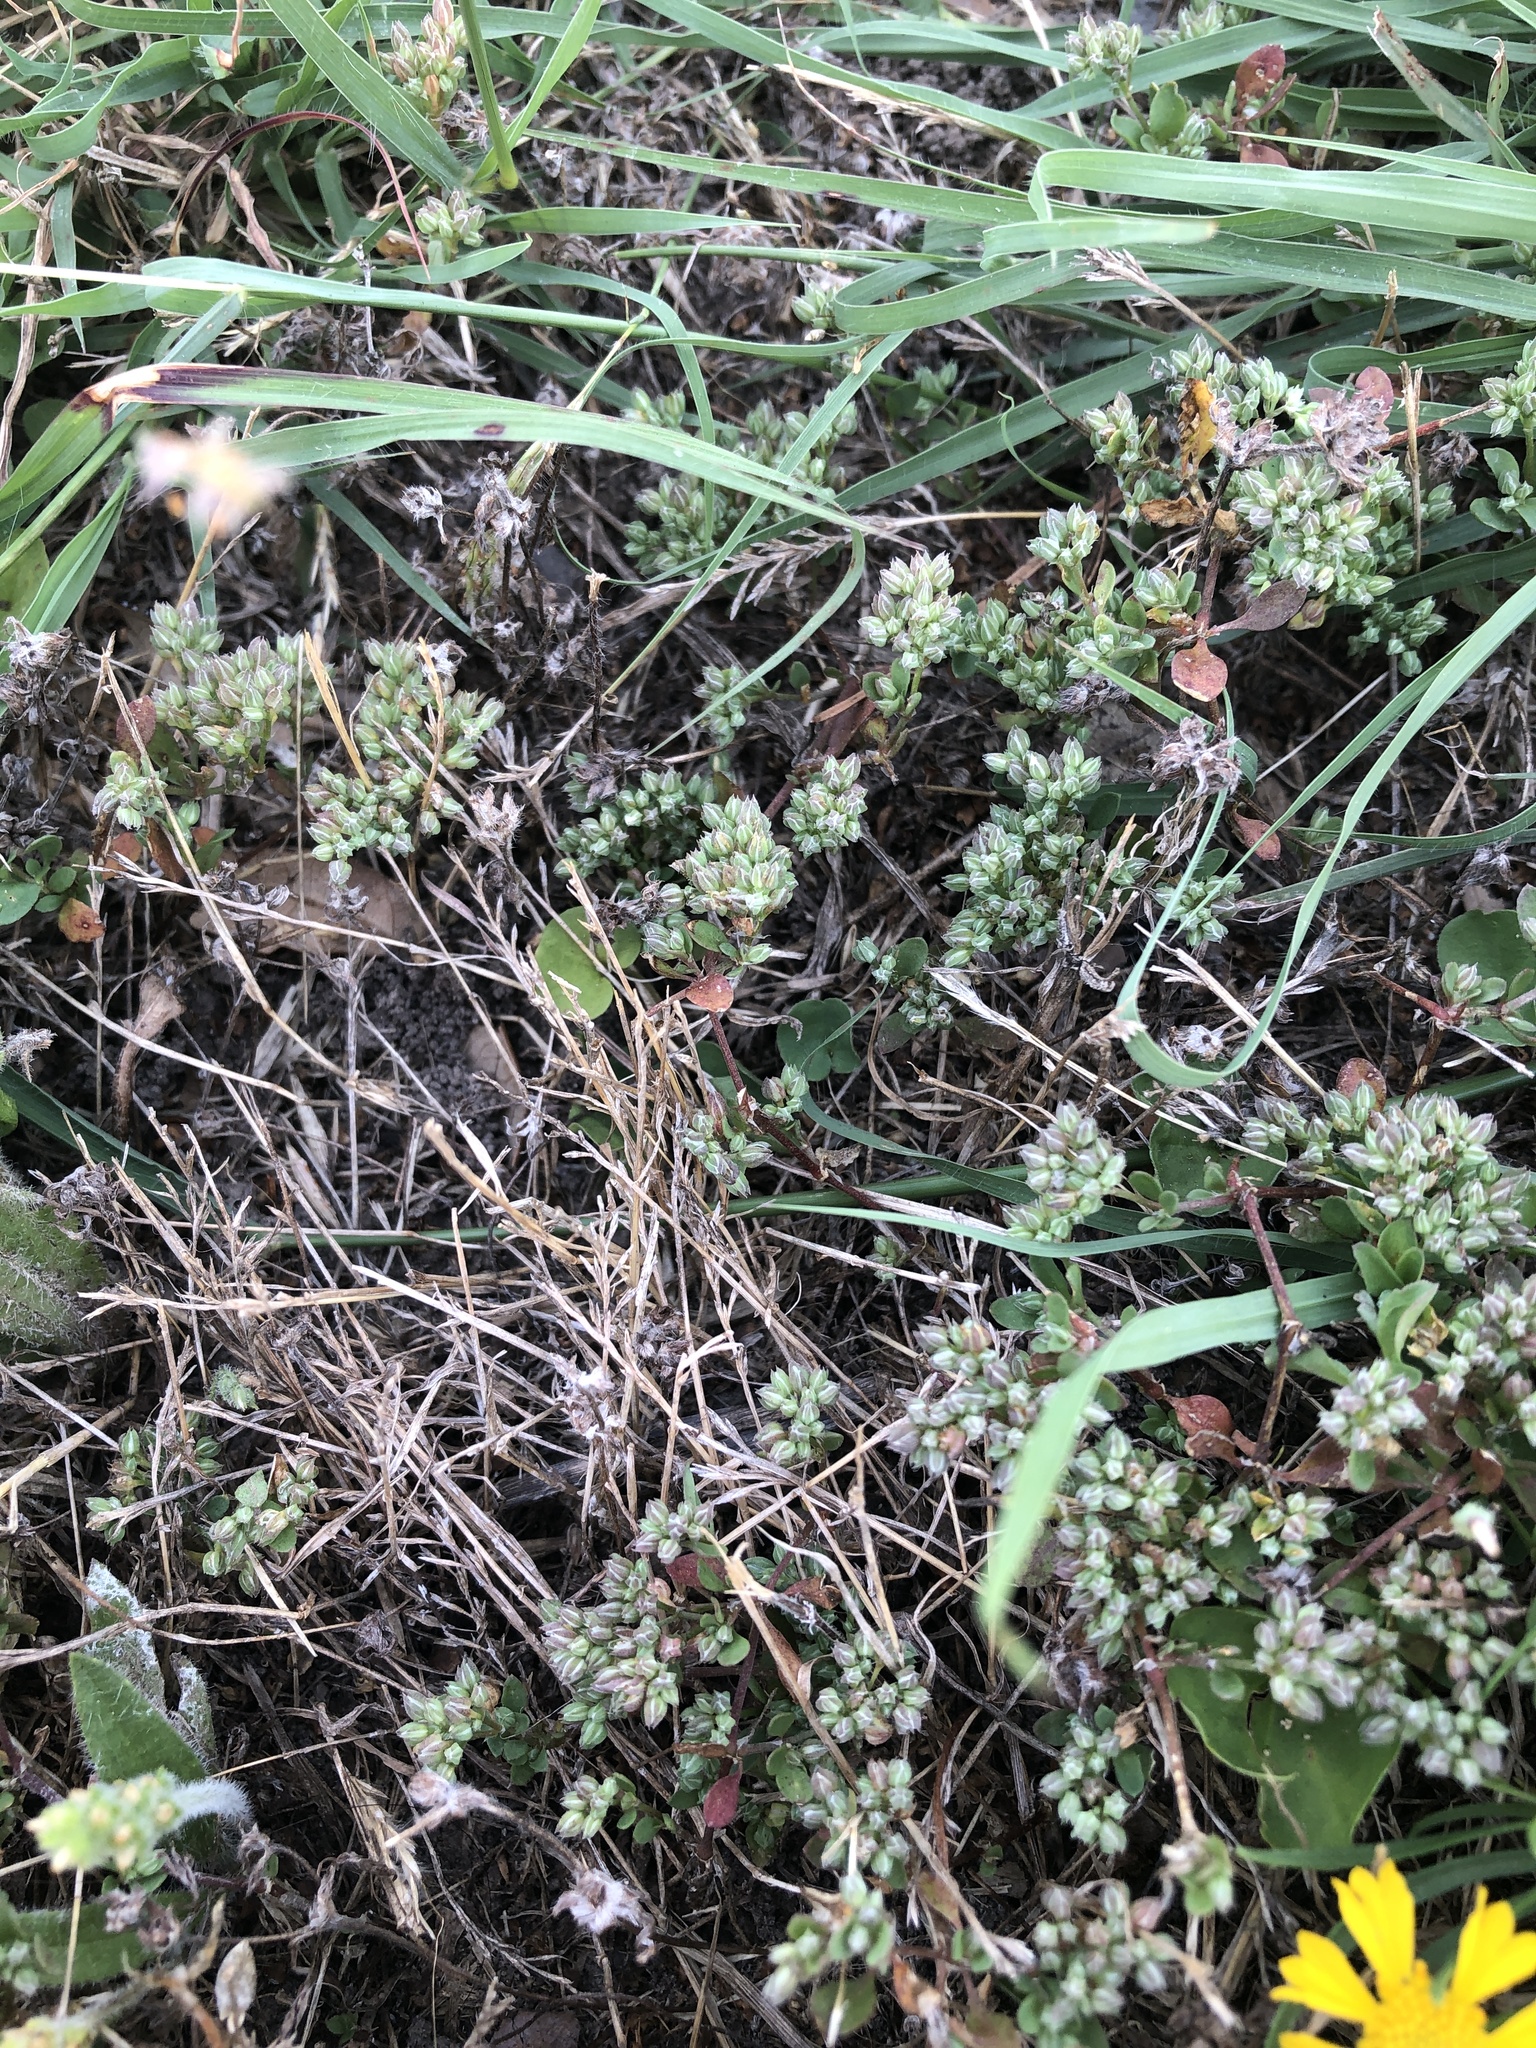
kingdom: Plantae
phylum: Tracheophyta
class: Magnoliopsida
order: Caryophyllales
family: Caryophyllaceae
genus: Polycarpon
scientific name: Polycarpon tetraphyllum
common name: Four-leaved all-seed
